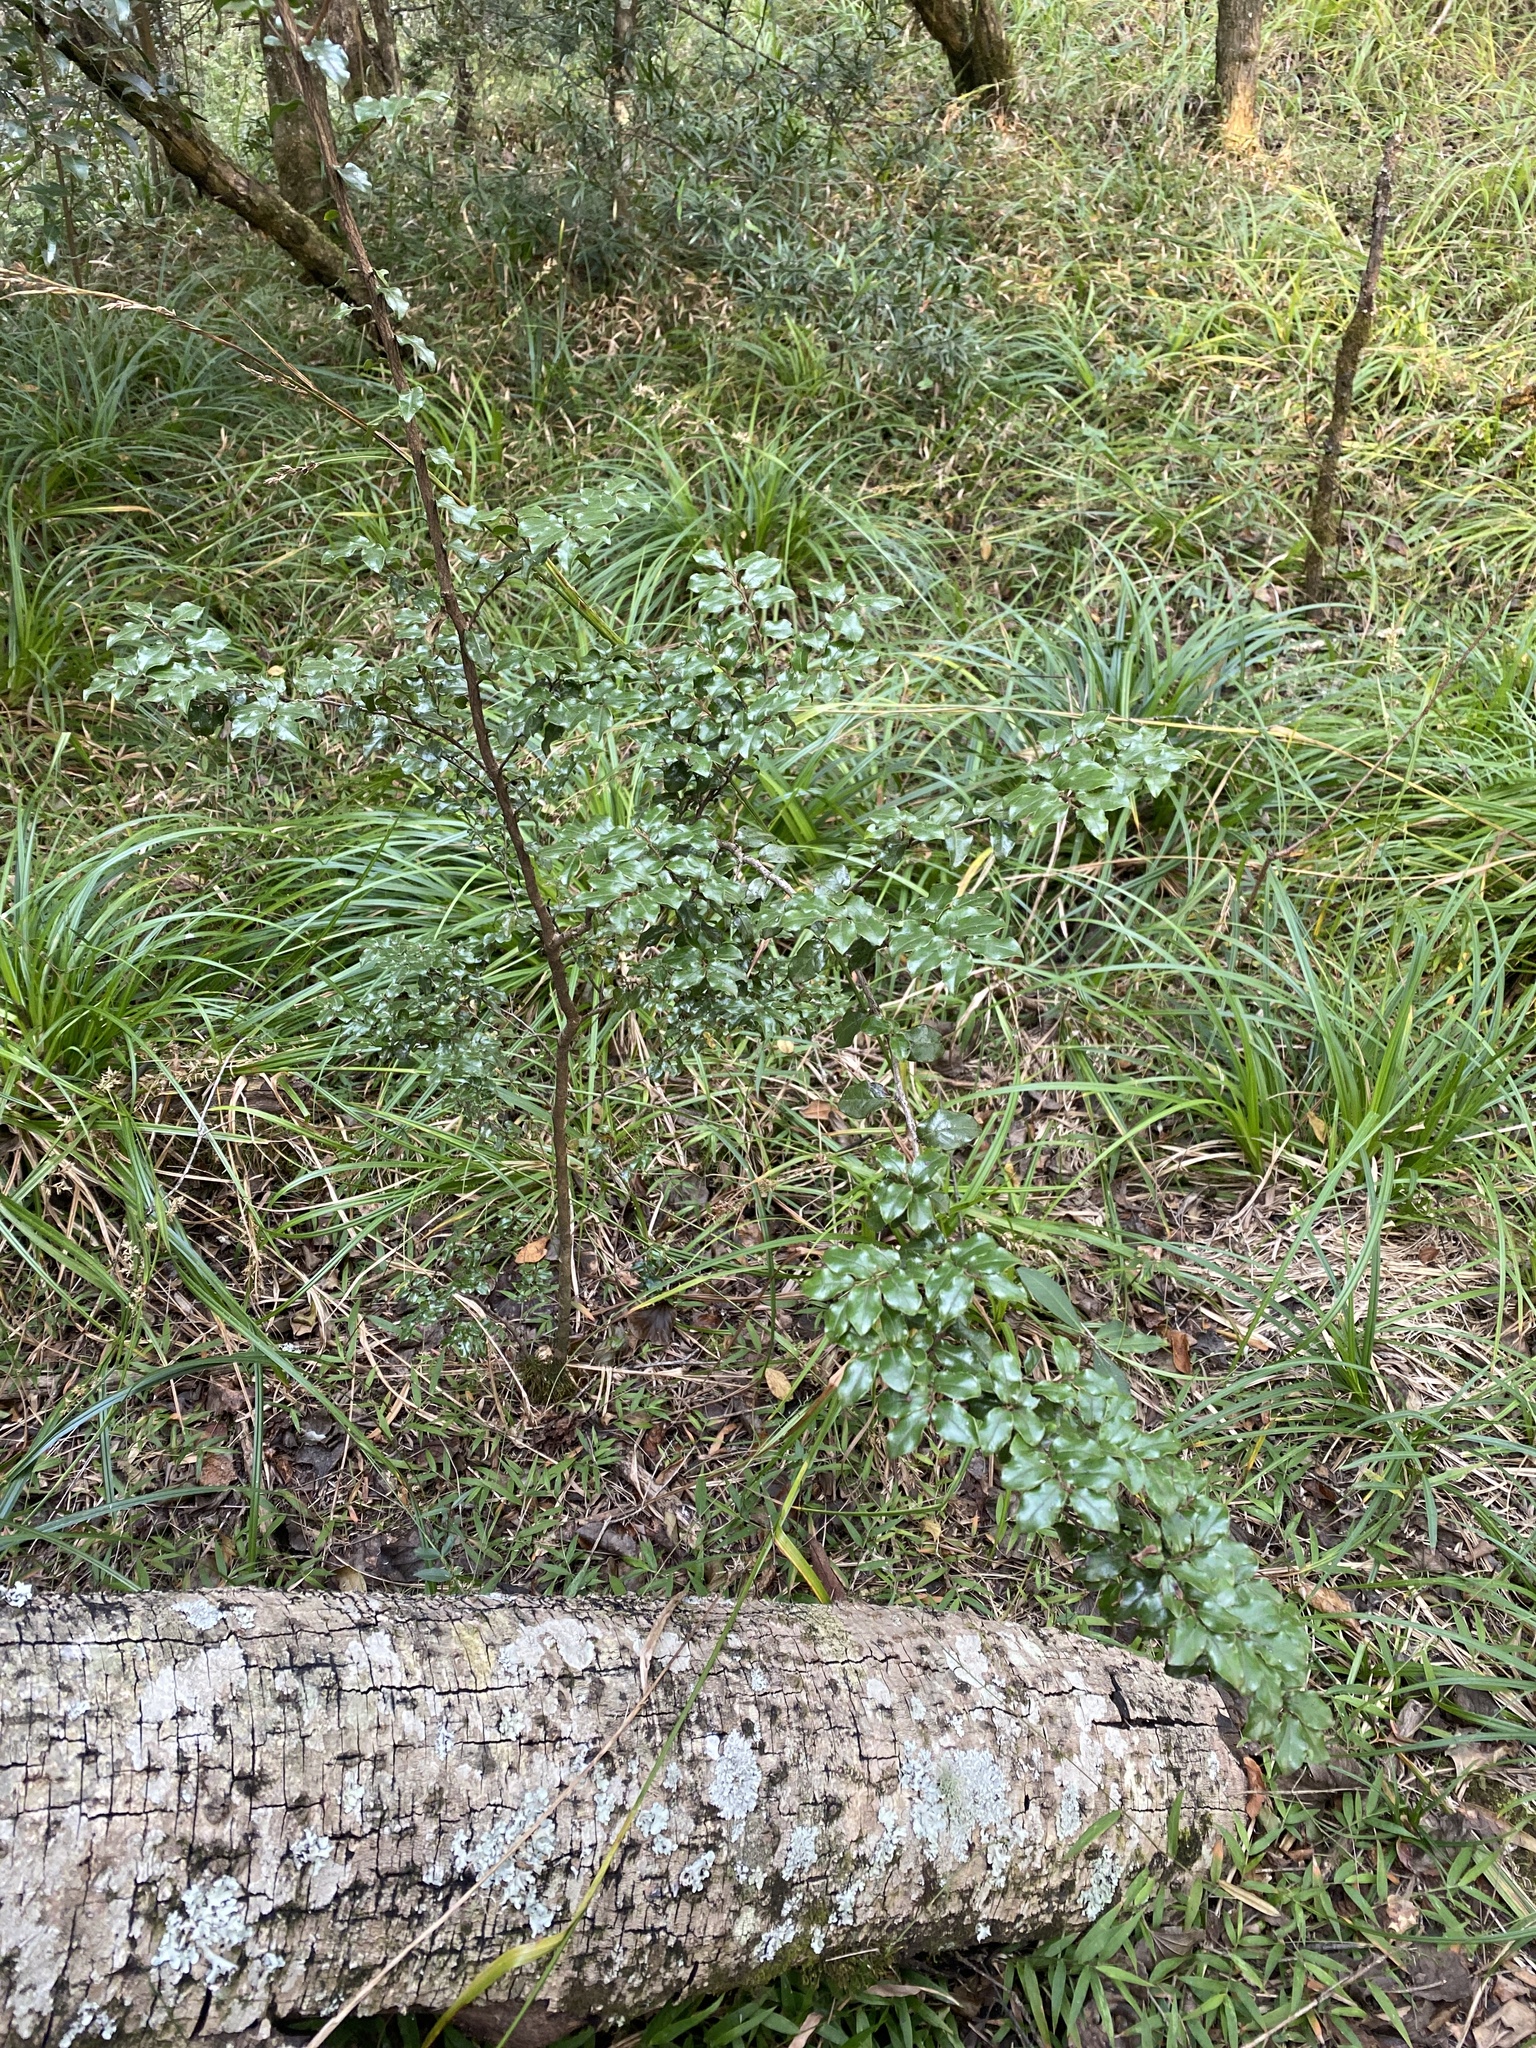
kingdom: Plantae
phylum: Tracheophyta
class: Magnoliopsida
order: Ericales
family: Ebenaceae
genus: Diospyros
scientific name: Diospyros whyteana
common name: Bladder-nut
